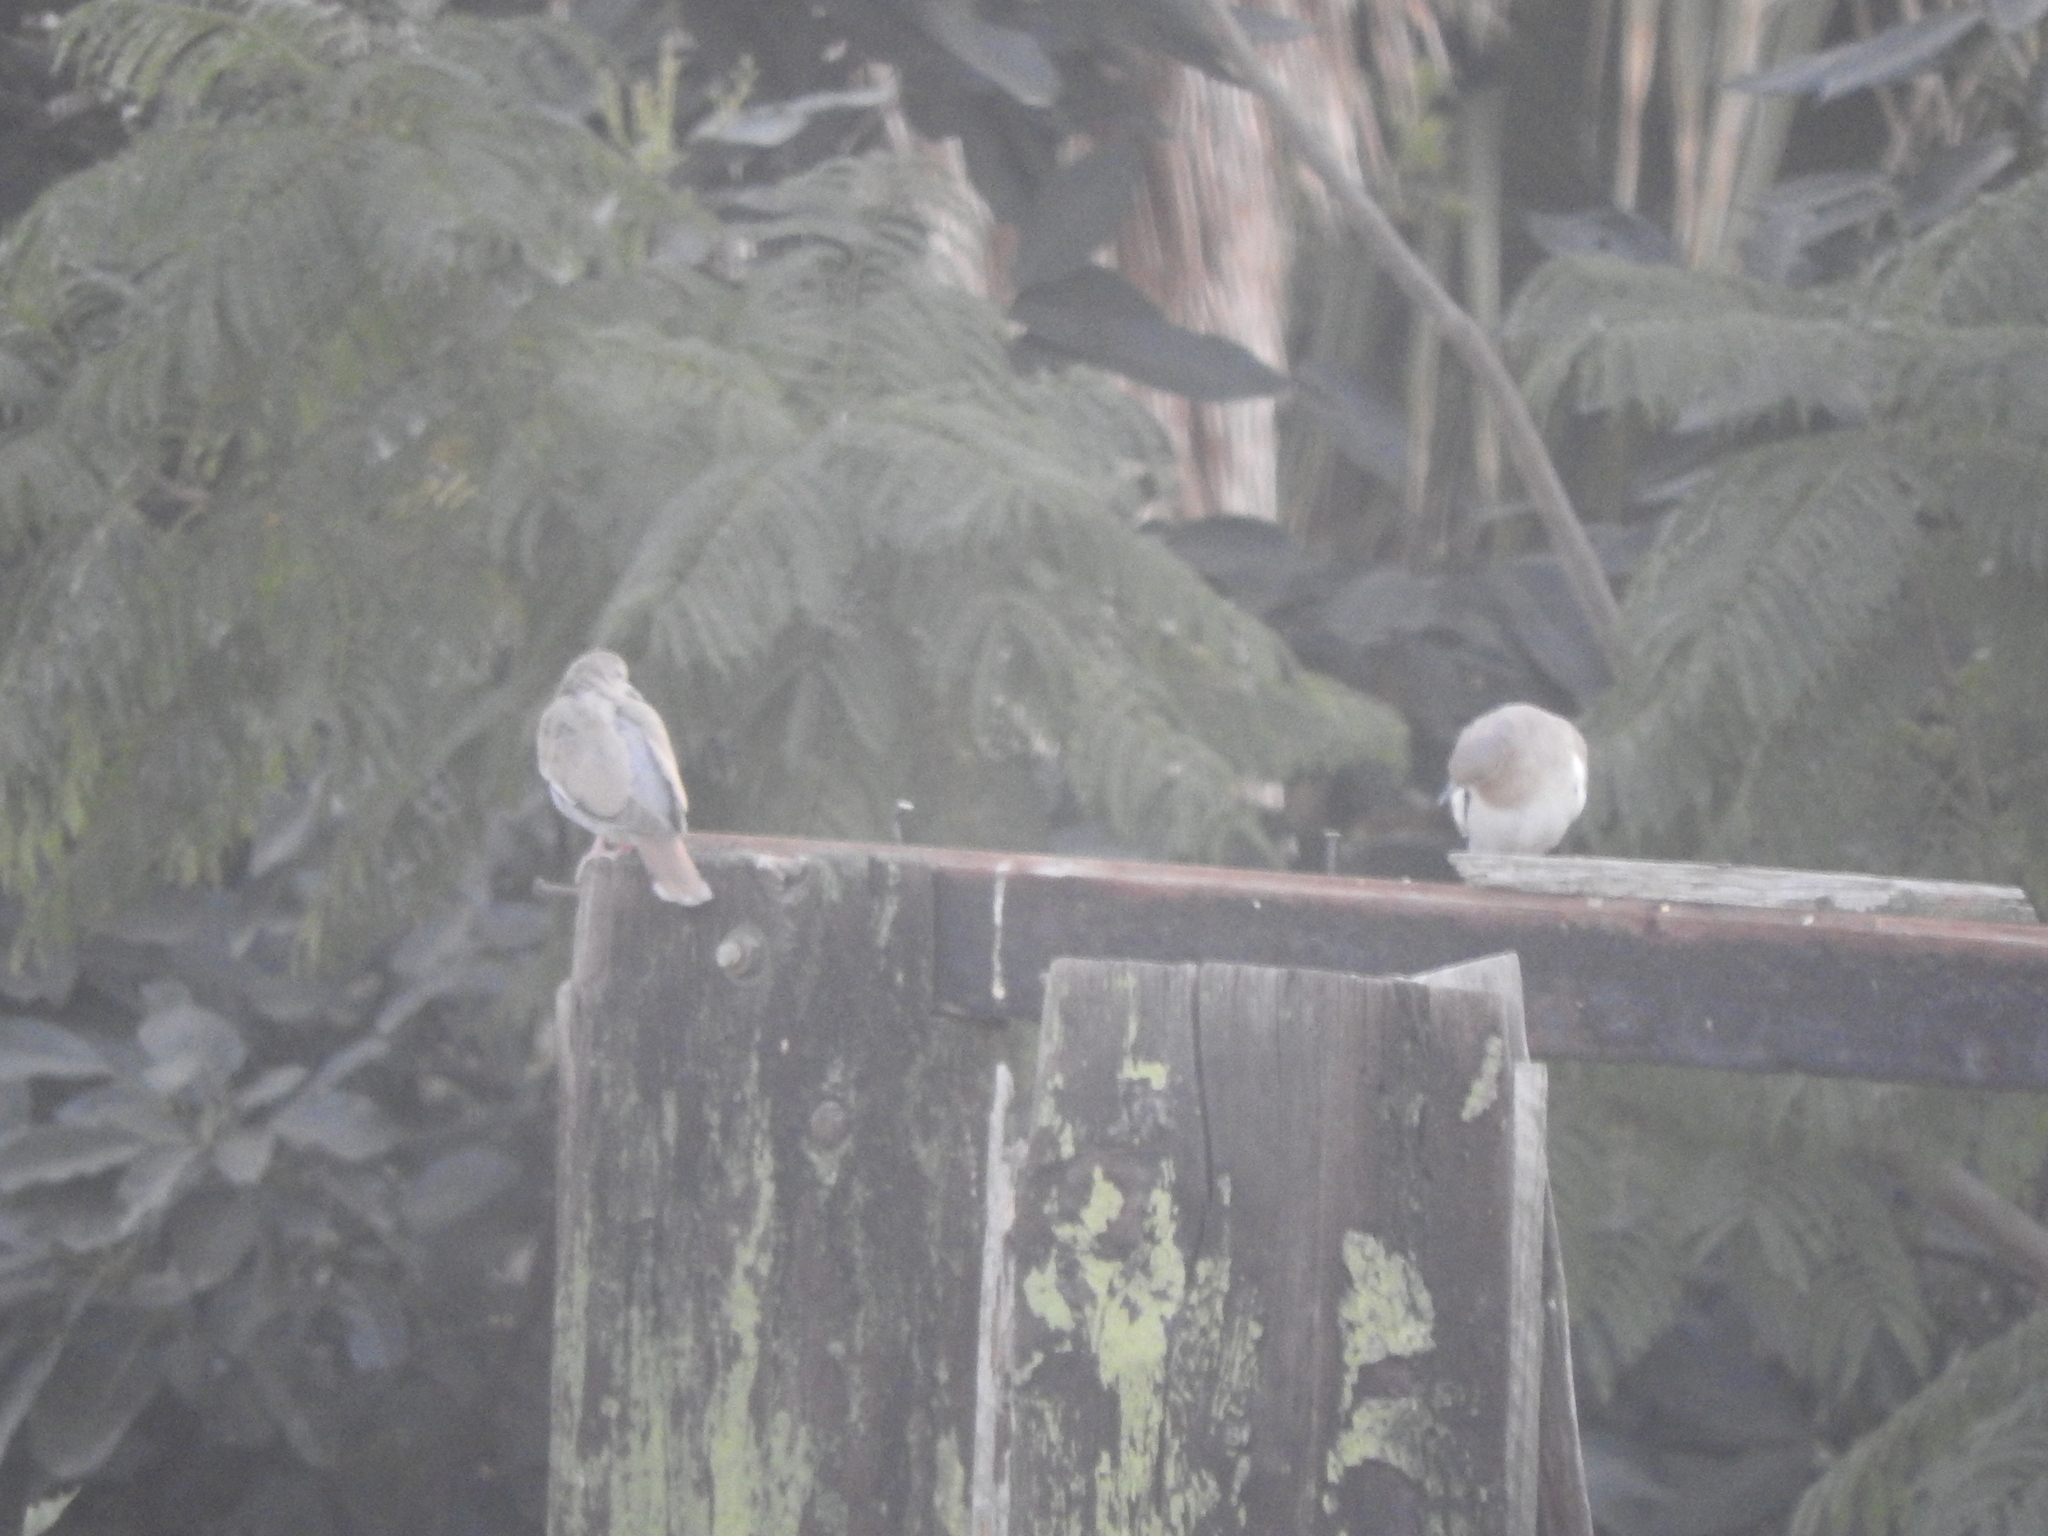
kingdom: Animalia
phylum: Chordata
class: Aves
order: Columbiformes
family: Columbidae
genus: Zenaida
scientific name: Zenaida asiatica
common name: White-winged dove
